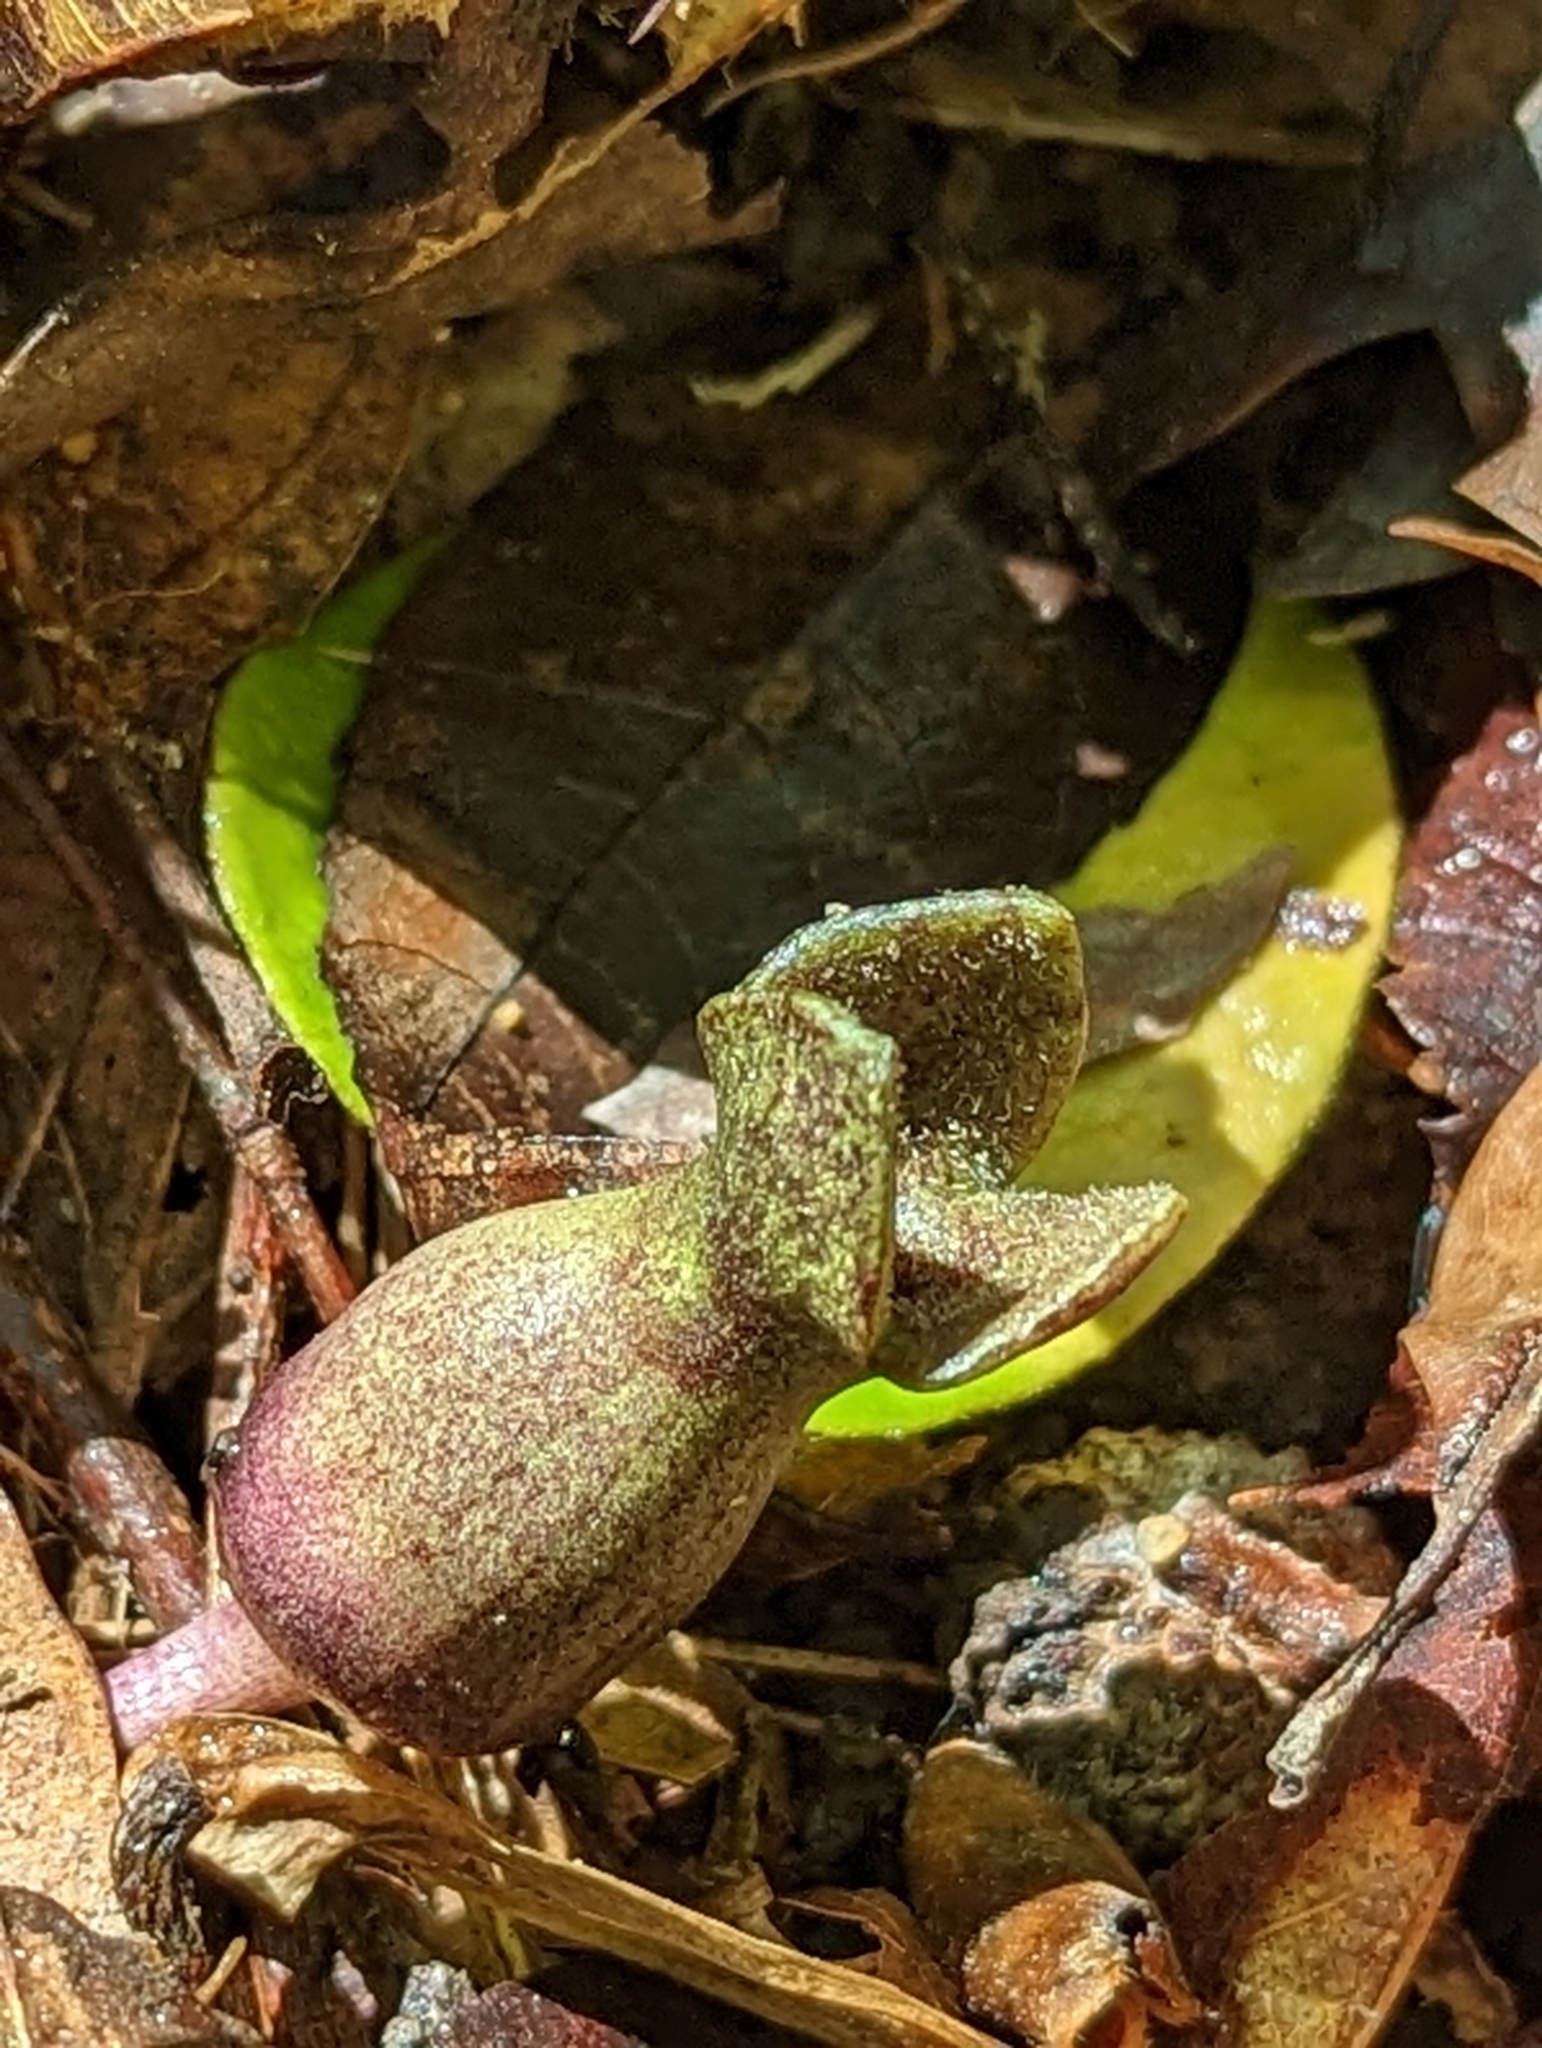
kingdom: Plantae
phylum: Tracheophyta
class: Magnoliopsida
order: Piperales
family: Aristolochiaceae
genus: Hexastylis
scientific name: Hexastylis arifolia
